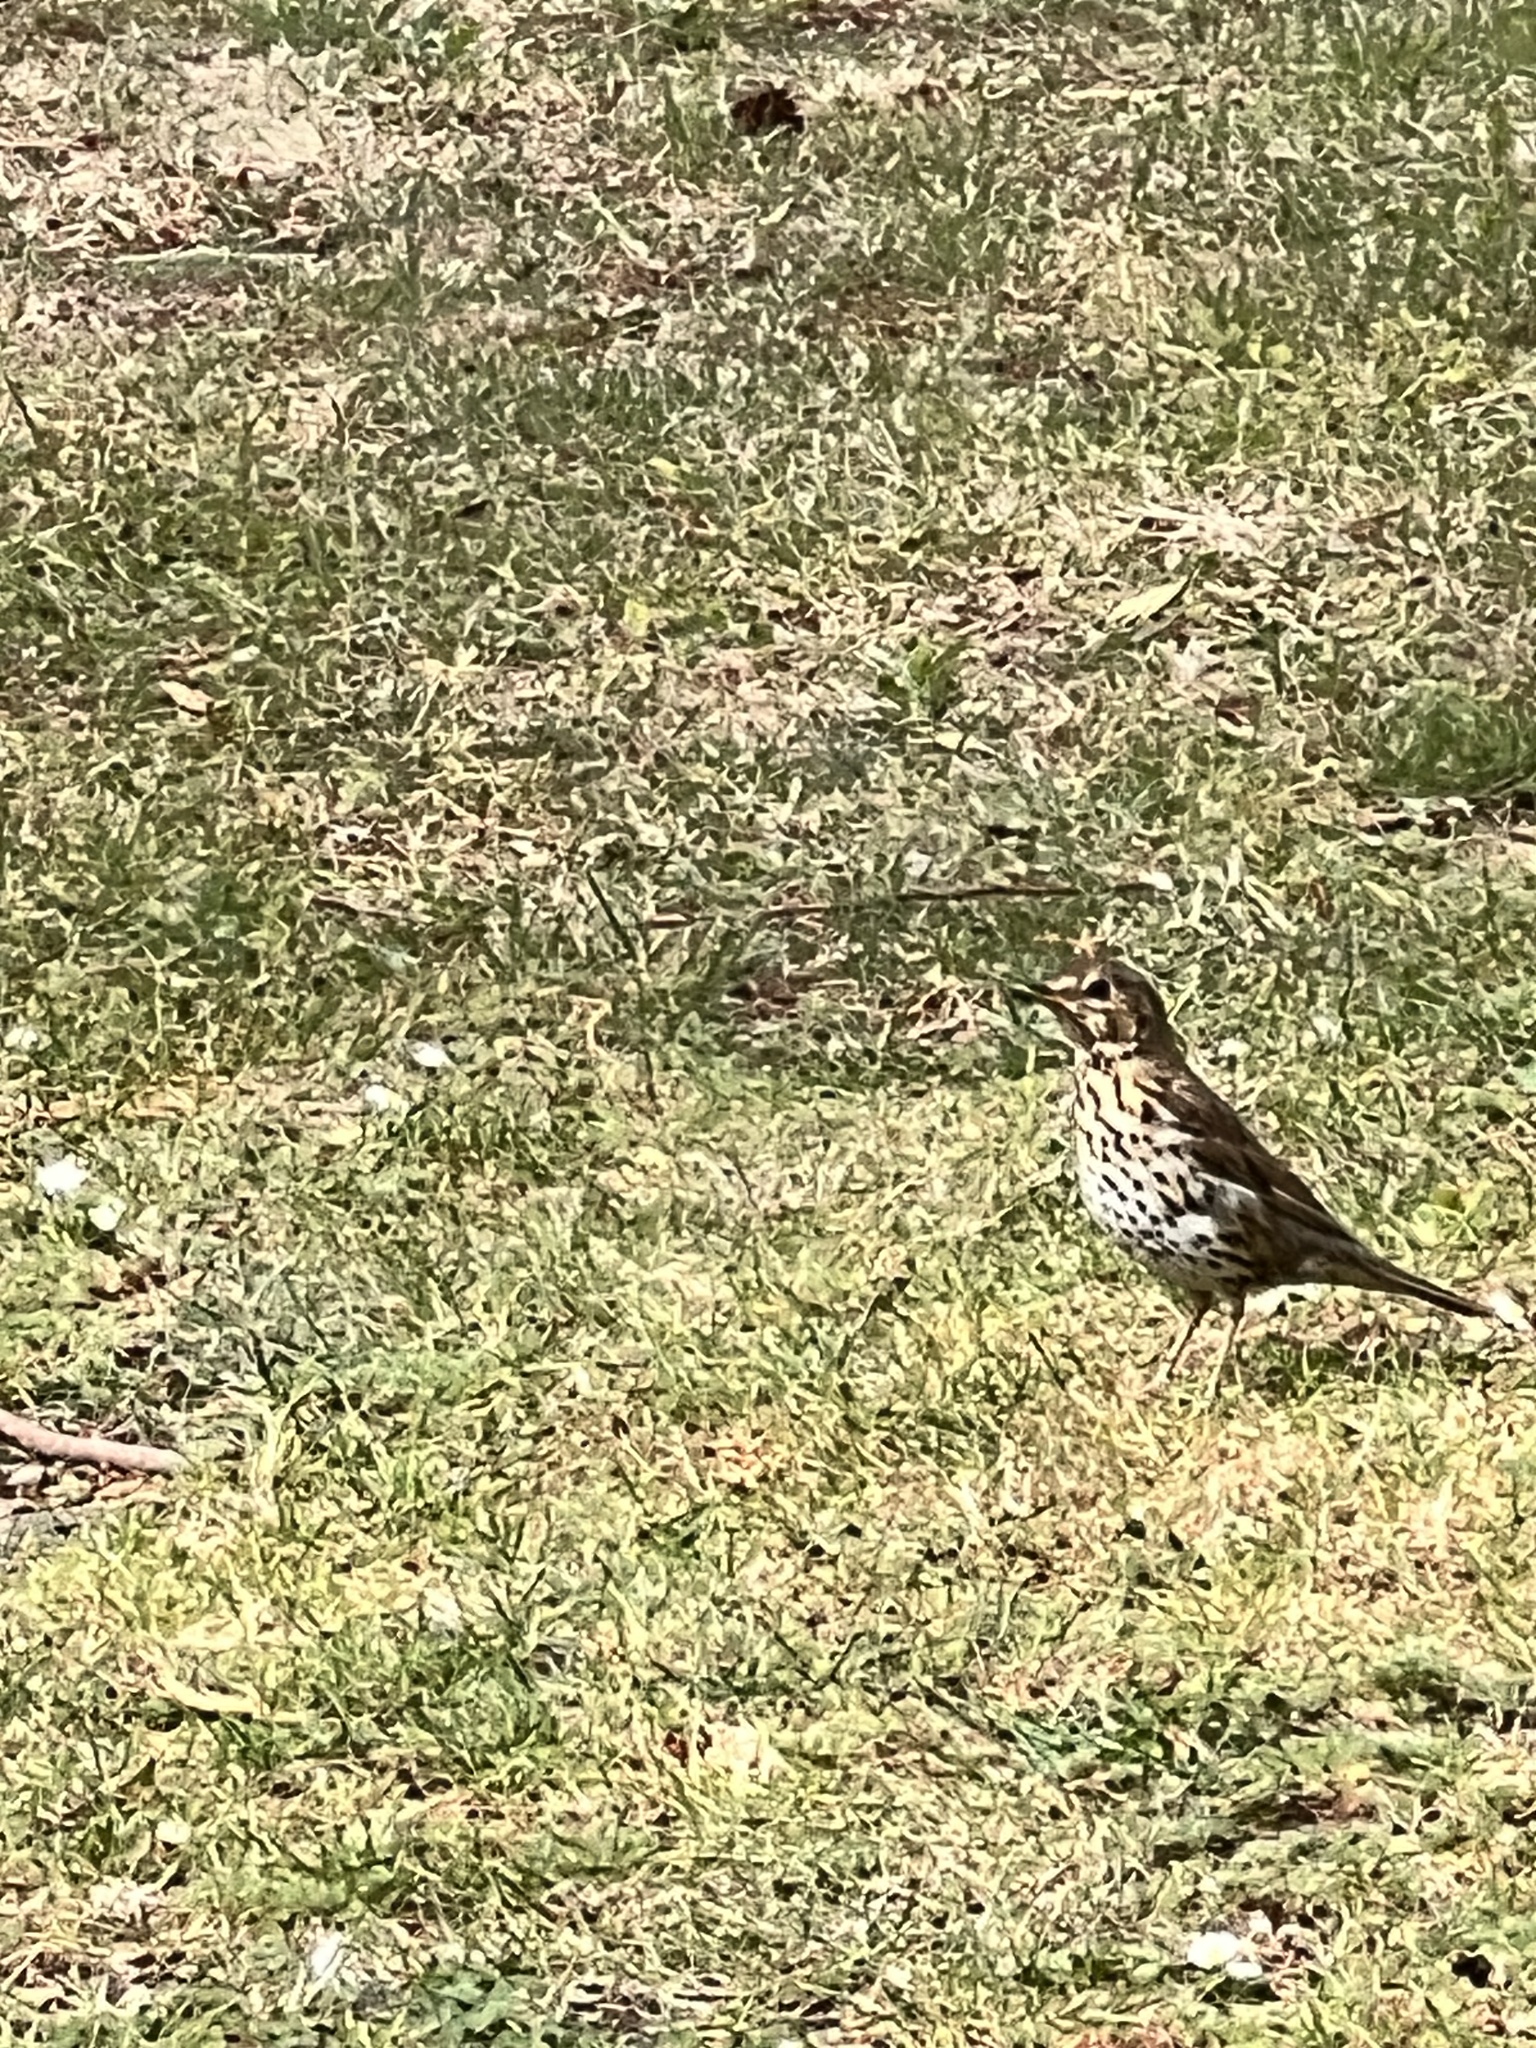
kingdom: Animalia
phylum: Chordata
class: Aves
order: Passeriformes
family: Turdidae
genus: Turdus
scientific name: Turdus philomelos
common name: Song thrush
